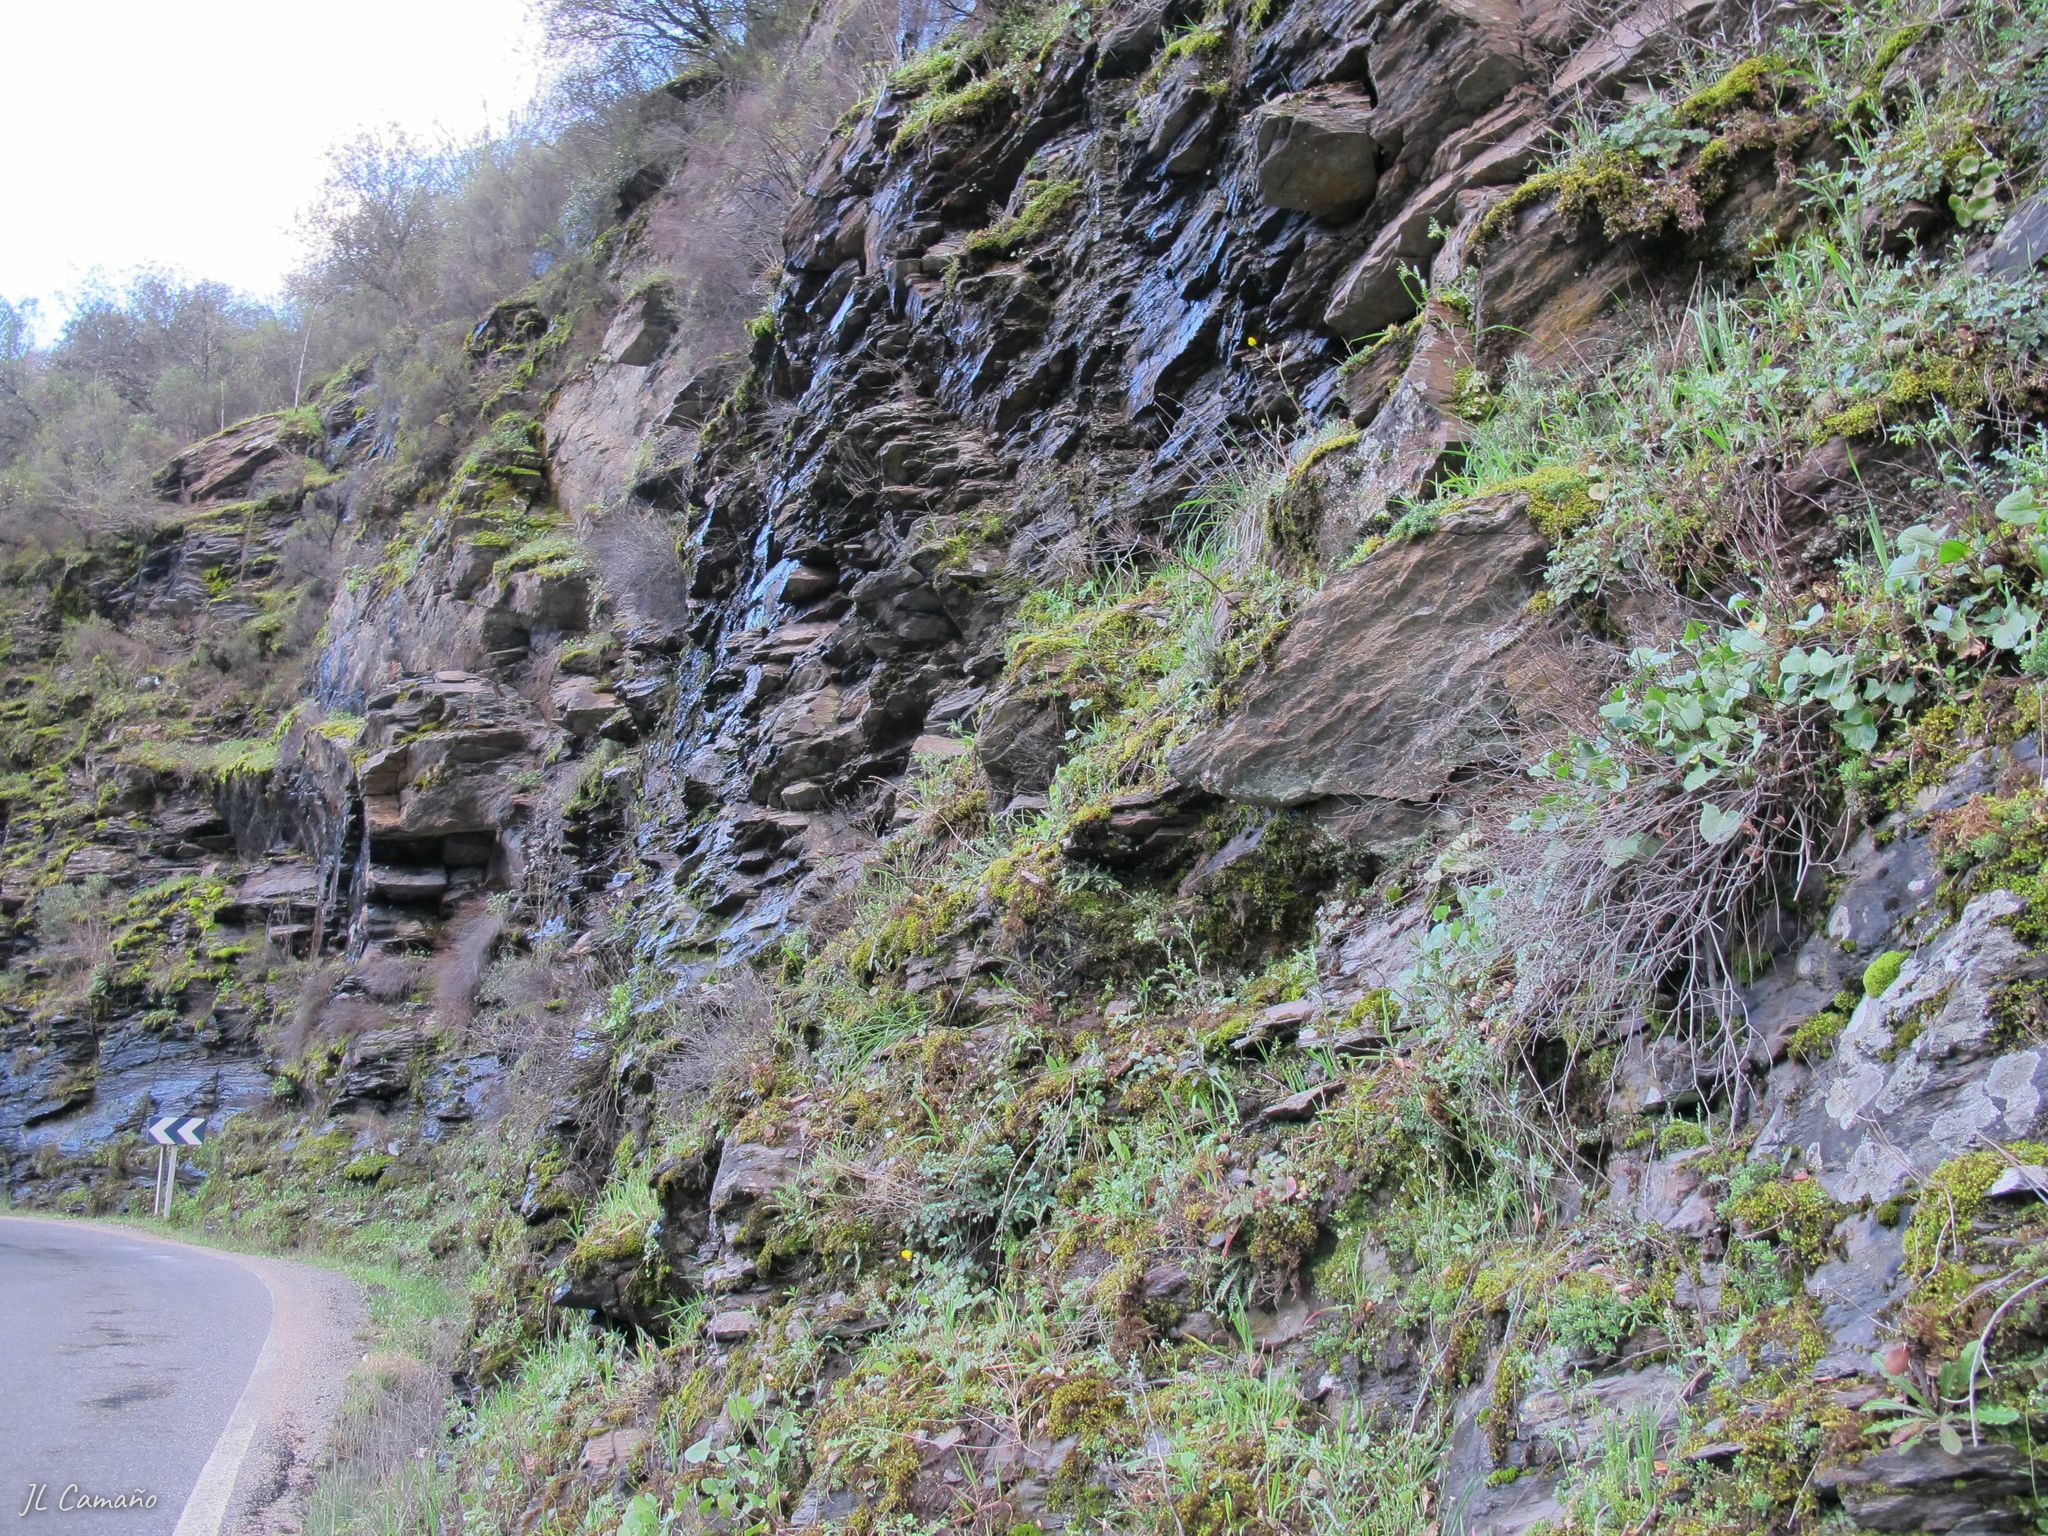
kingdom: Plantae
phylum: Bryophyta
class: Bryopsida
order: Bryales
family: Bryaceae
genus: Imbribryum
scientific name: Imbribryum alpinum
